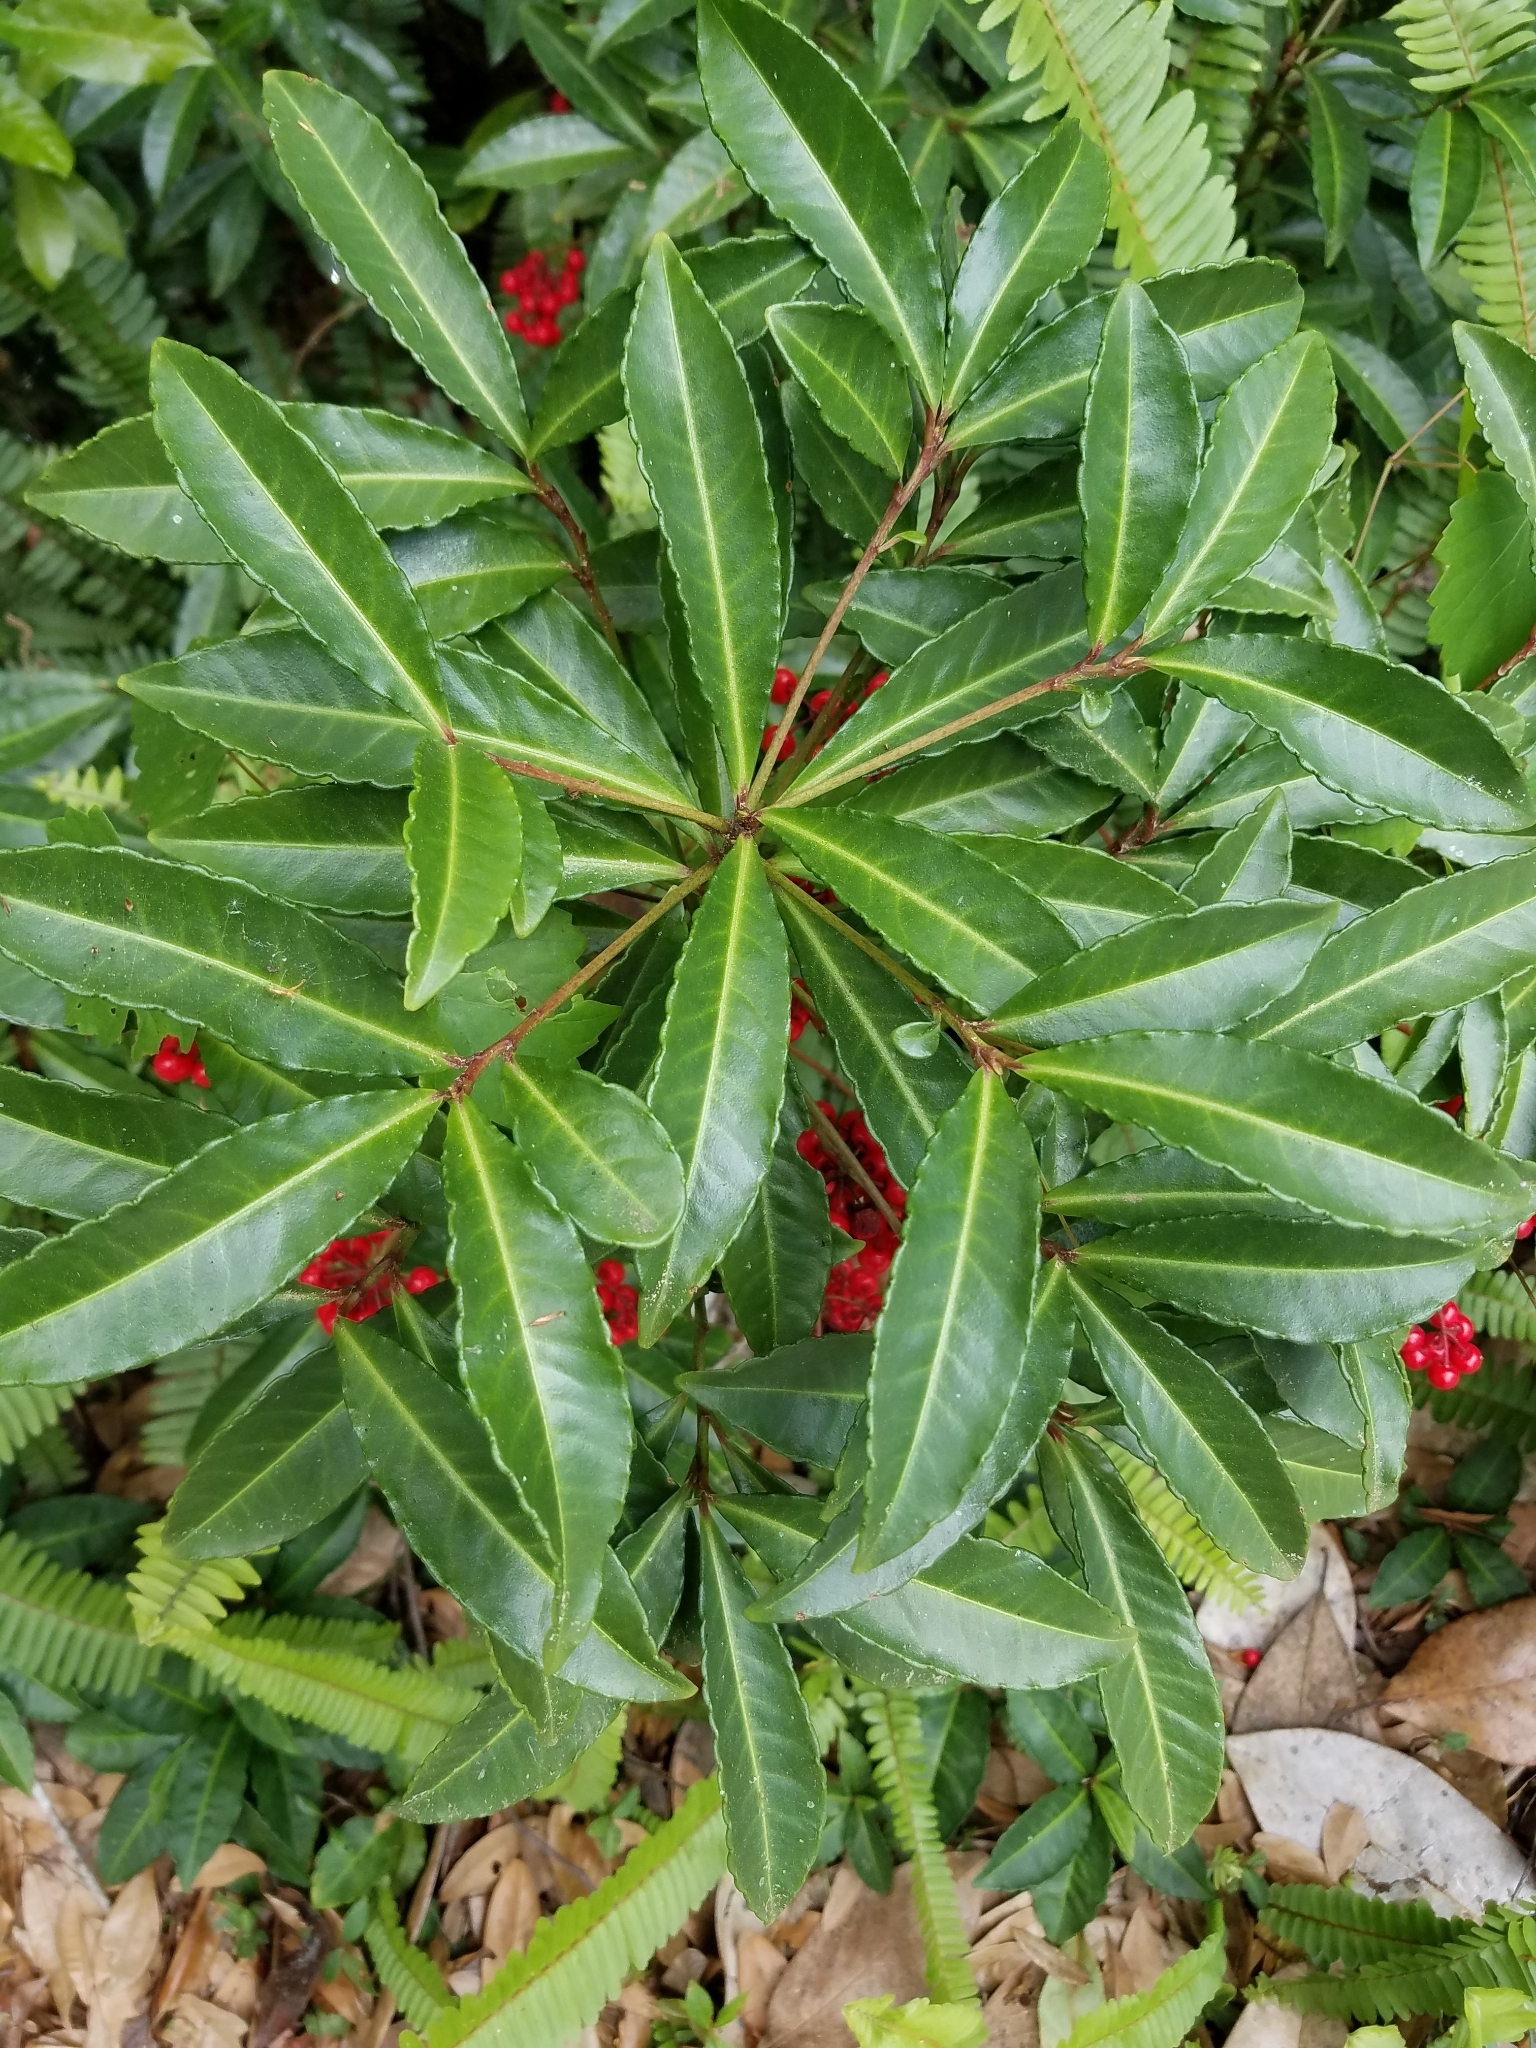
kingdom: Plantae
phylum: Tracheophyta
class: Magnoliopsida
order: Ericales
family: Primulaceae
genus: Ardisia
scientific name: Ardisia crenata
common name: Hen's eyes
